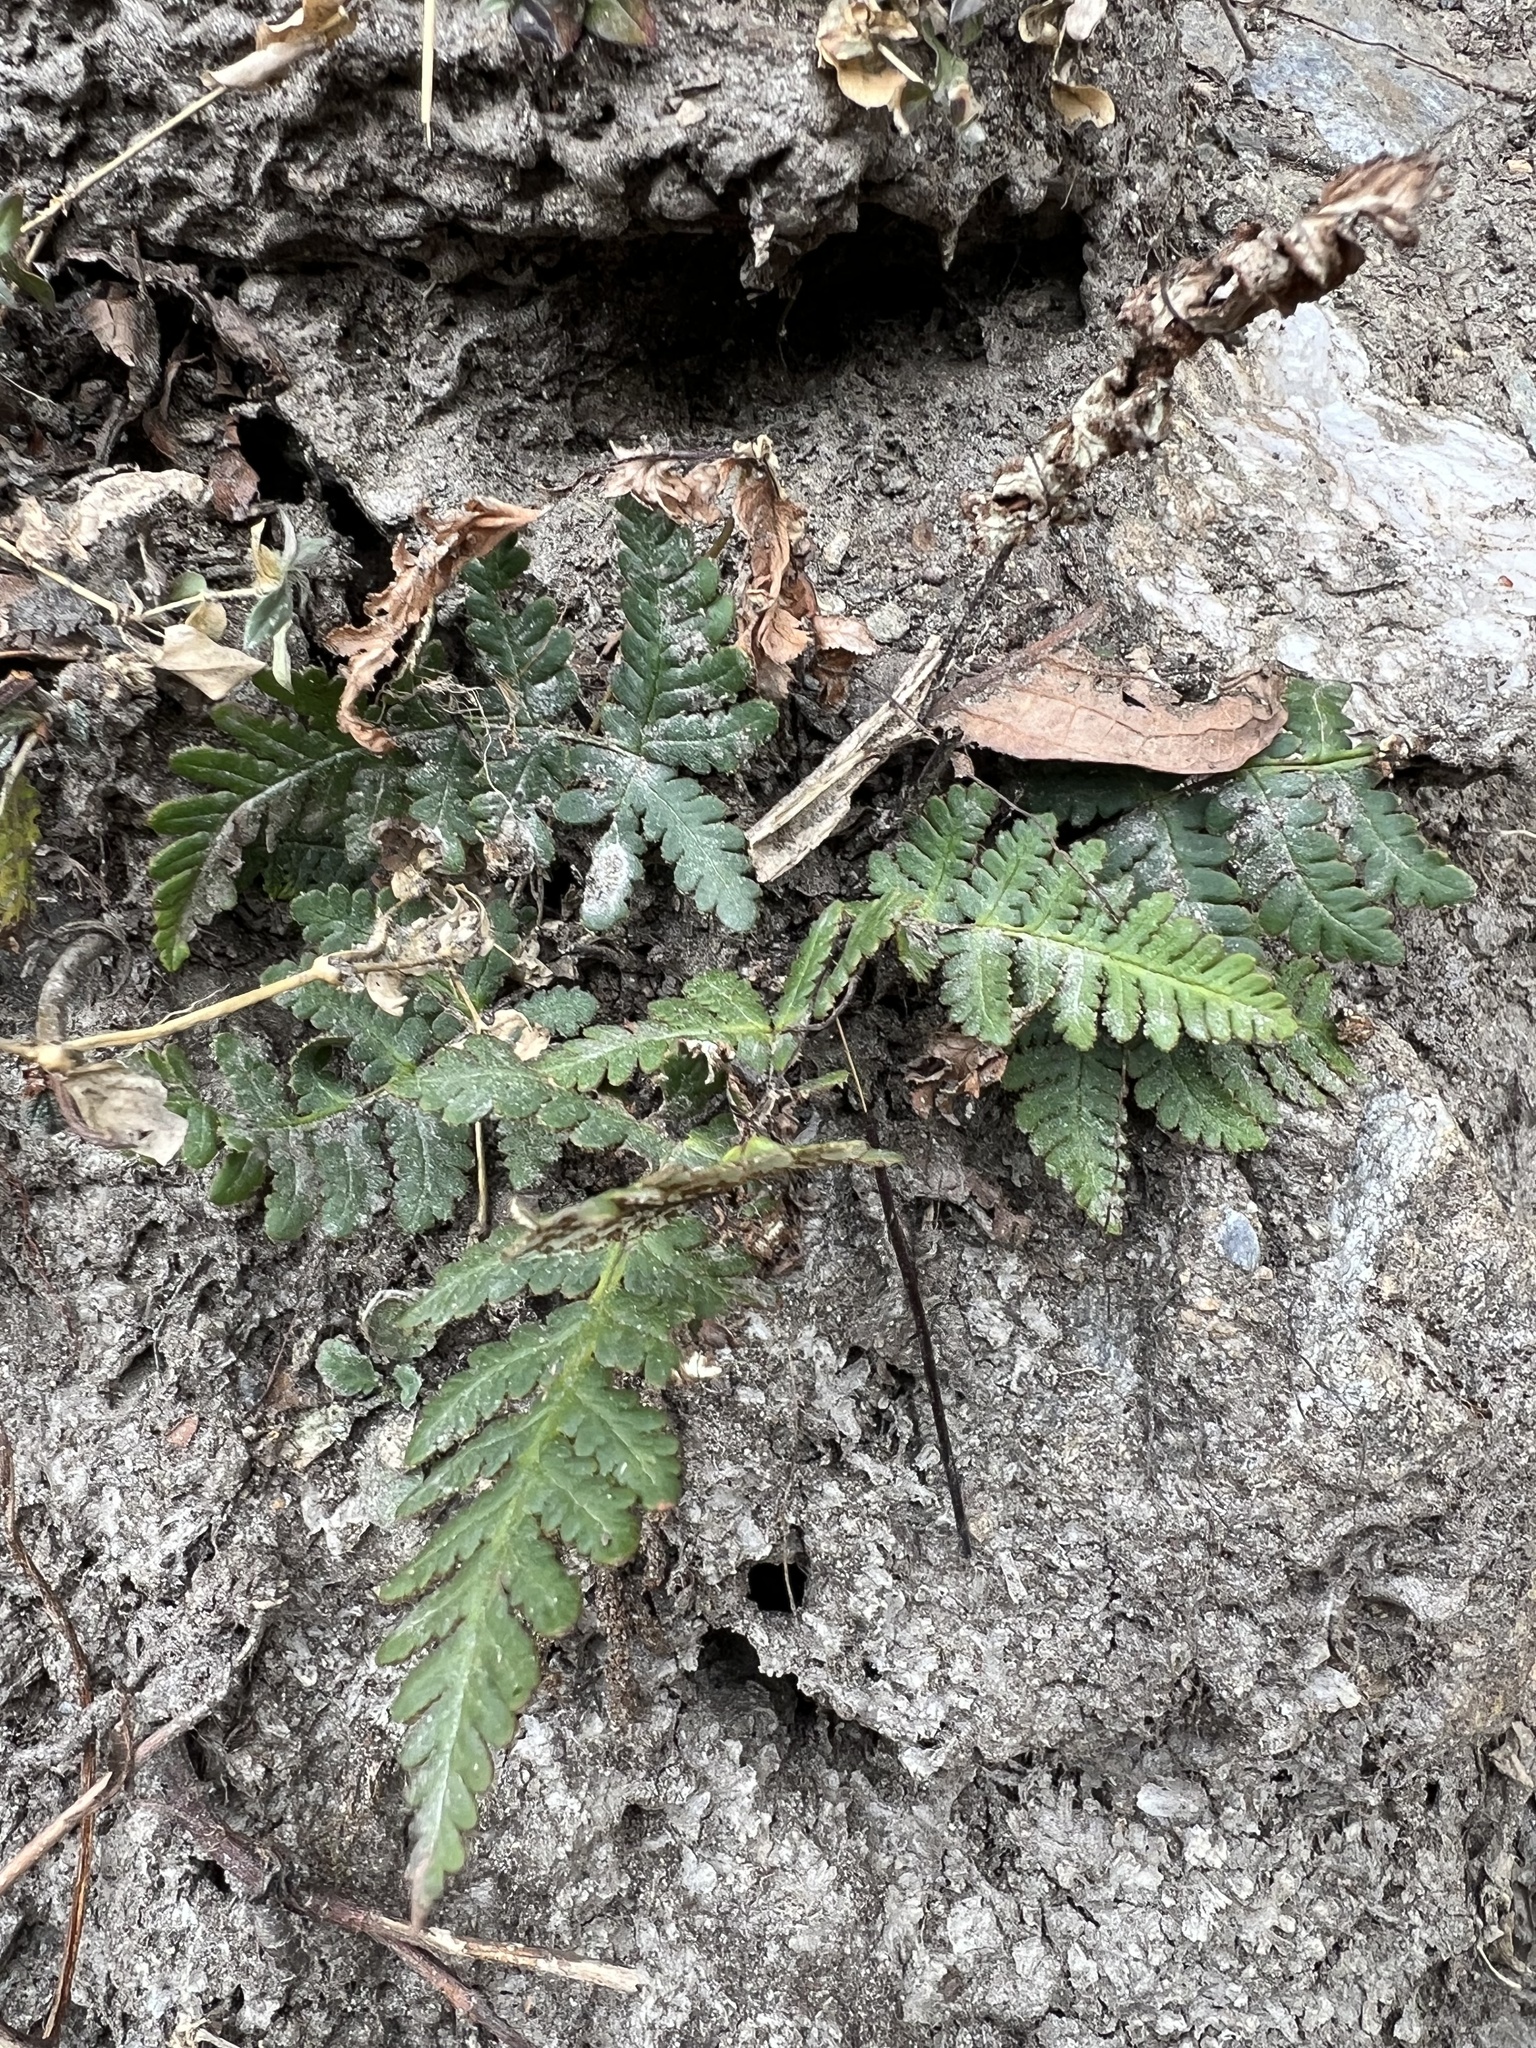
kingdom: Plantae
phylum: Tracheophyta
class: Polypodiopsida
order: Polypodiales
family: Pteridaceae
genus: Aleuritopteris
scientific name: Aleuritopteris anceps
